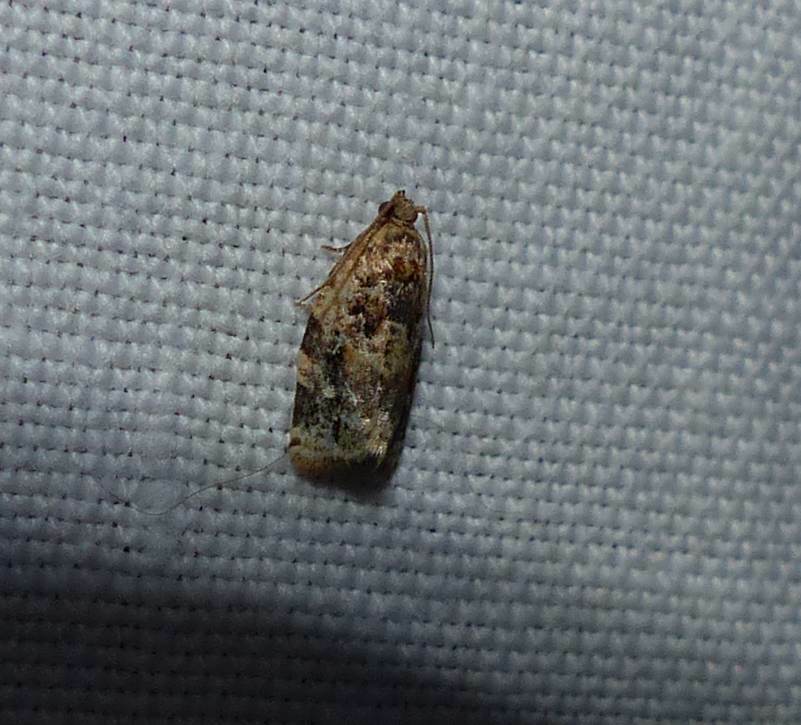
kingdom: Animalia
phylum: Arthropoda
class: Insecta
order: Lepidoptera
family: Tortricidae
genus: Argyrotaenia
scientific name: Argyrotaenia velutinana
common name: Red-banded leafroller moth
